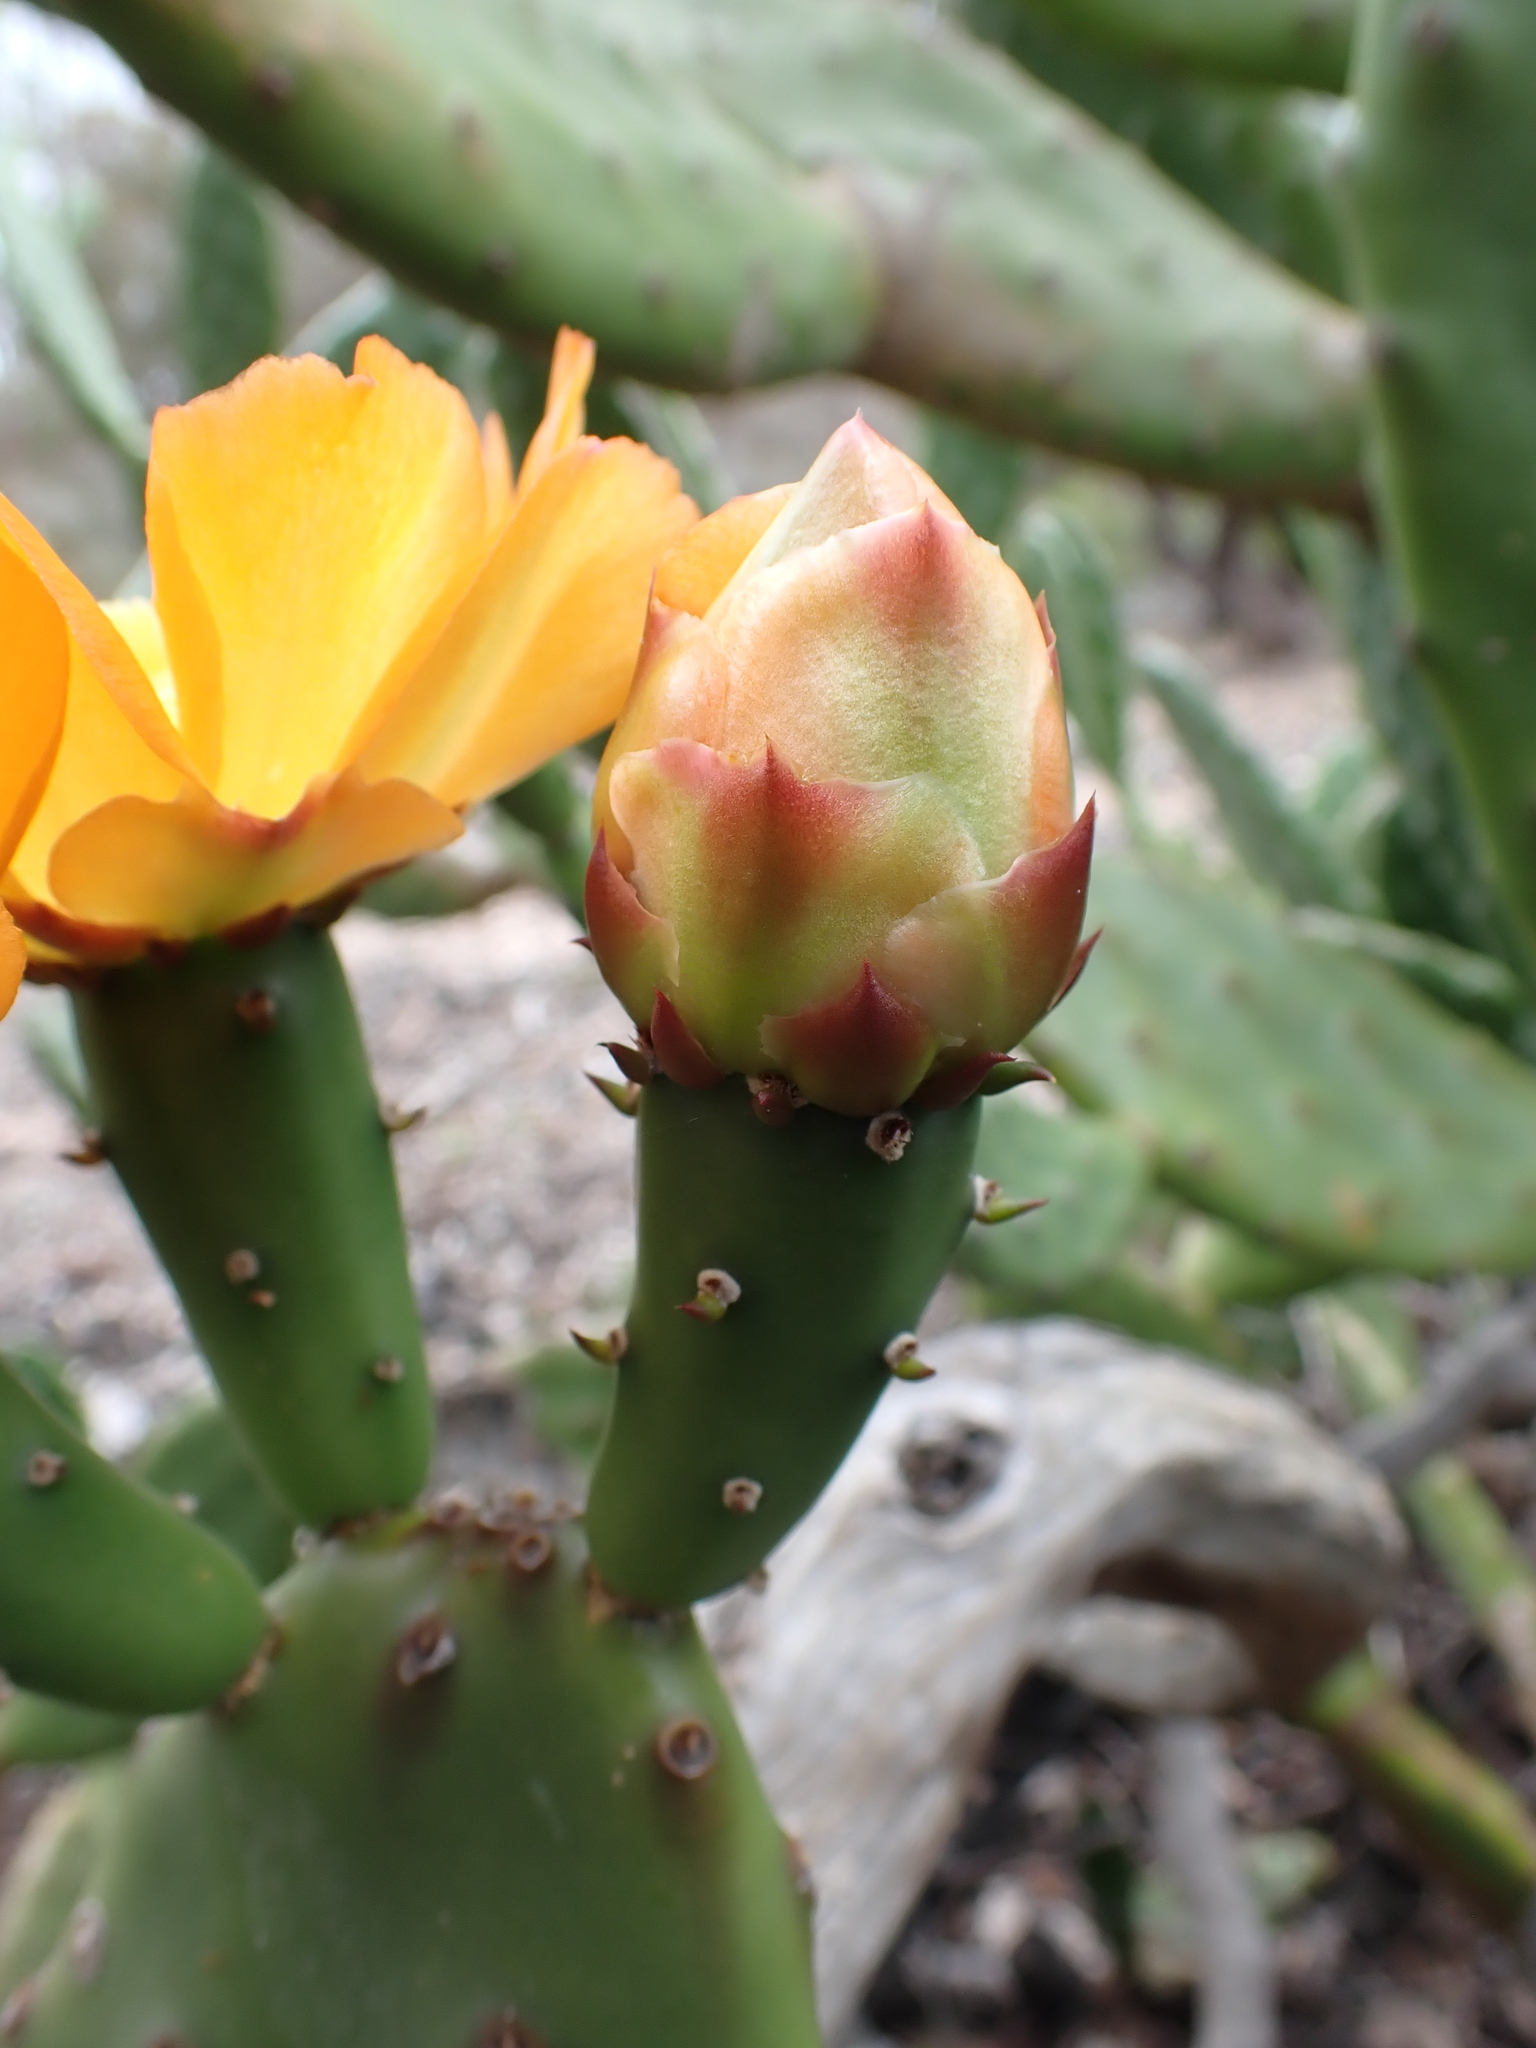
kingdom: Plantae
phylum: Tracheophyta
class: Magnoliopsida
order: Caryophyllales
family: Cactaceae
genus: Opuntia
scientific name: Opuntia elata
